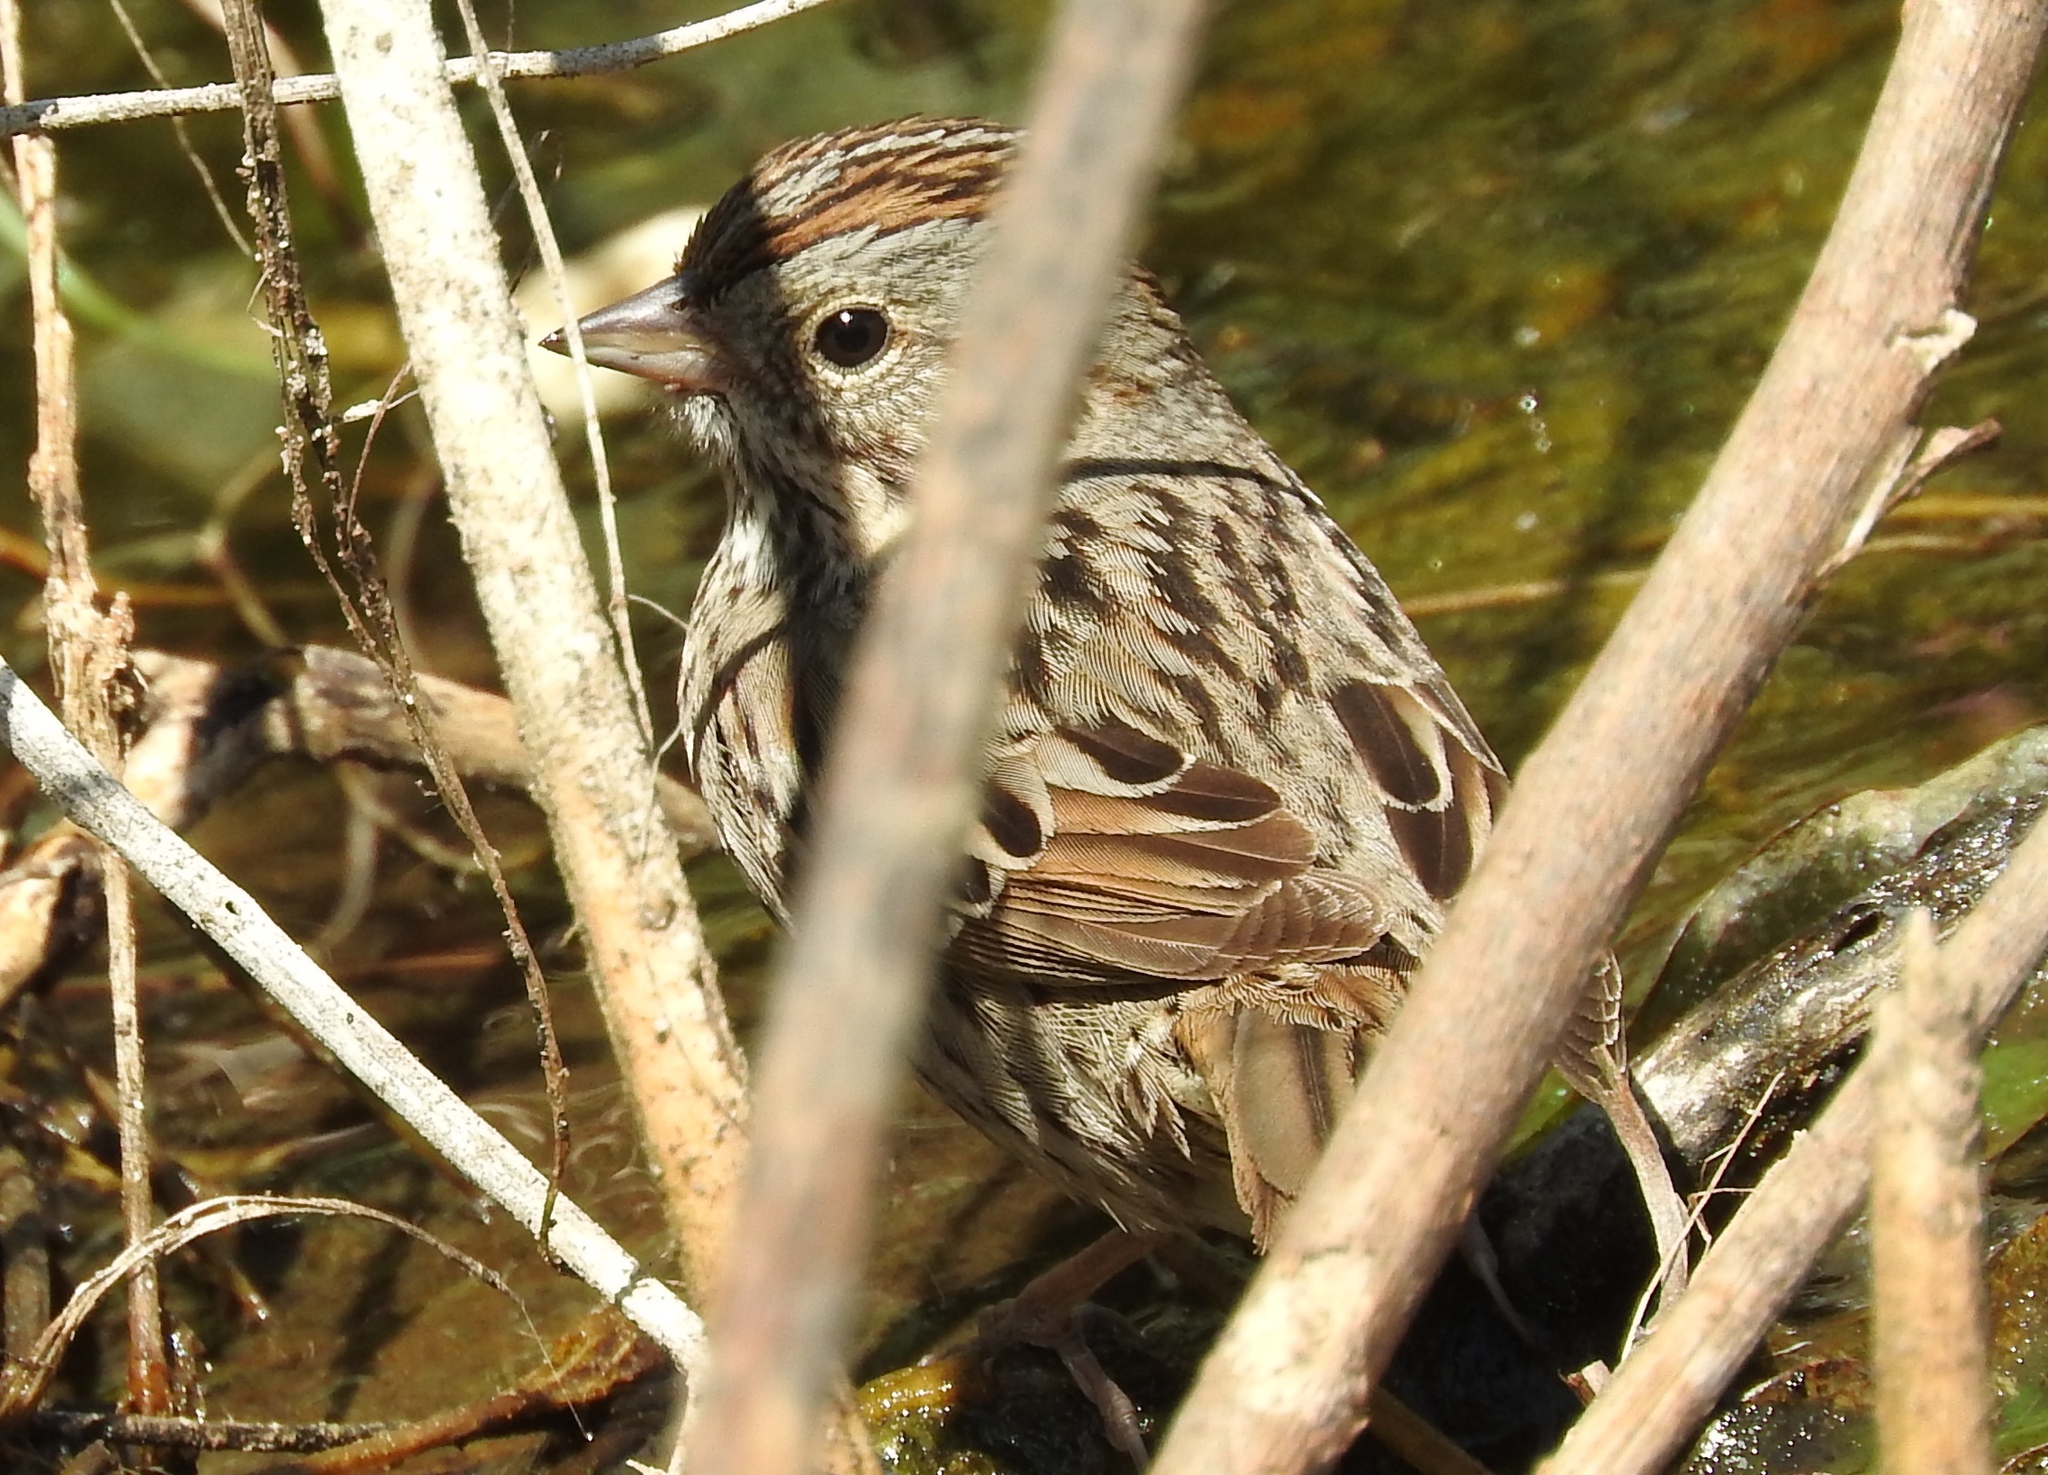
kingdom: Animalia
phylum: Chordata
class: Aves
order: Passeriformes
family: Passerellidae
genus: Melospiza
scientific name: Melospiza lincolnii
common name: Lincoln's sparrow
